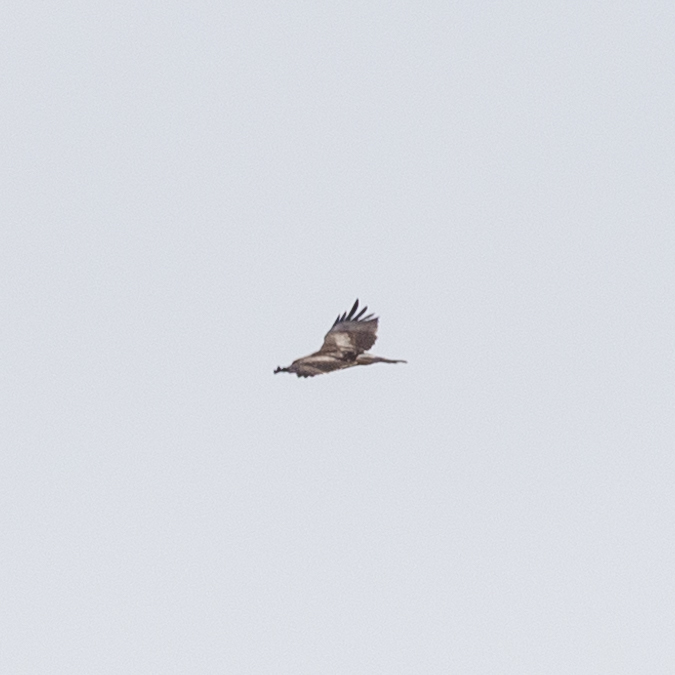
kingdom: Animalia
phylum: Chordata
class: Aves
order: Accipitriformes
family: Accipitridae
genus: Hieraaetus
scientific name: Hieraaetus pennatus
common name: Booted eagle
